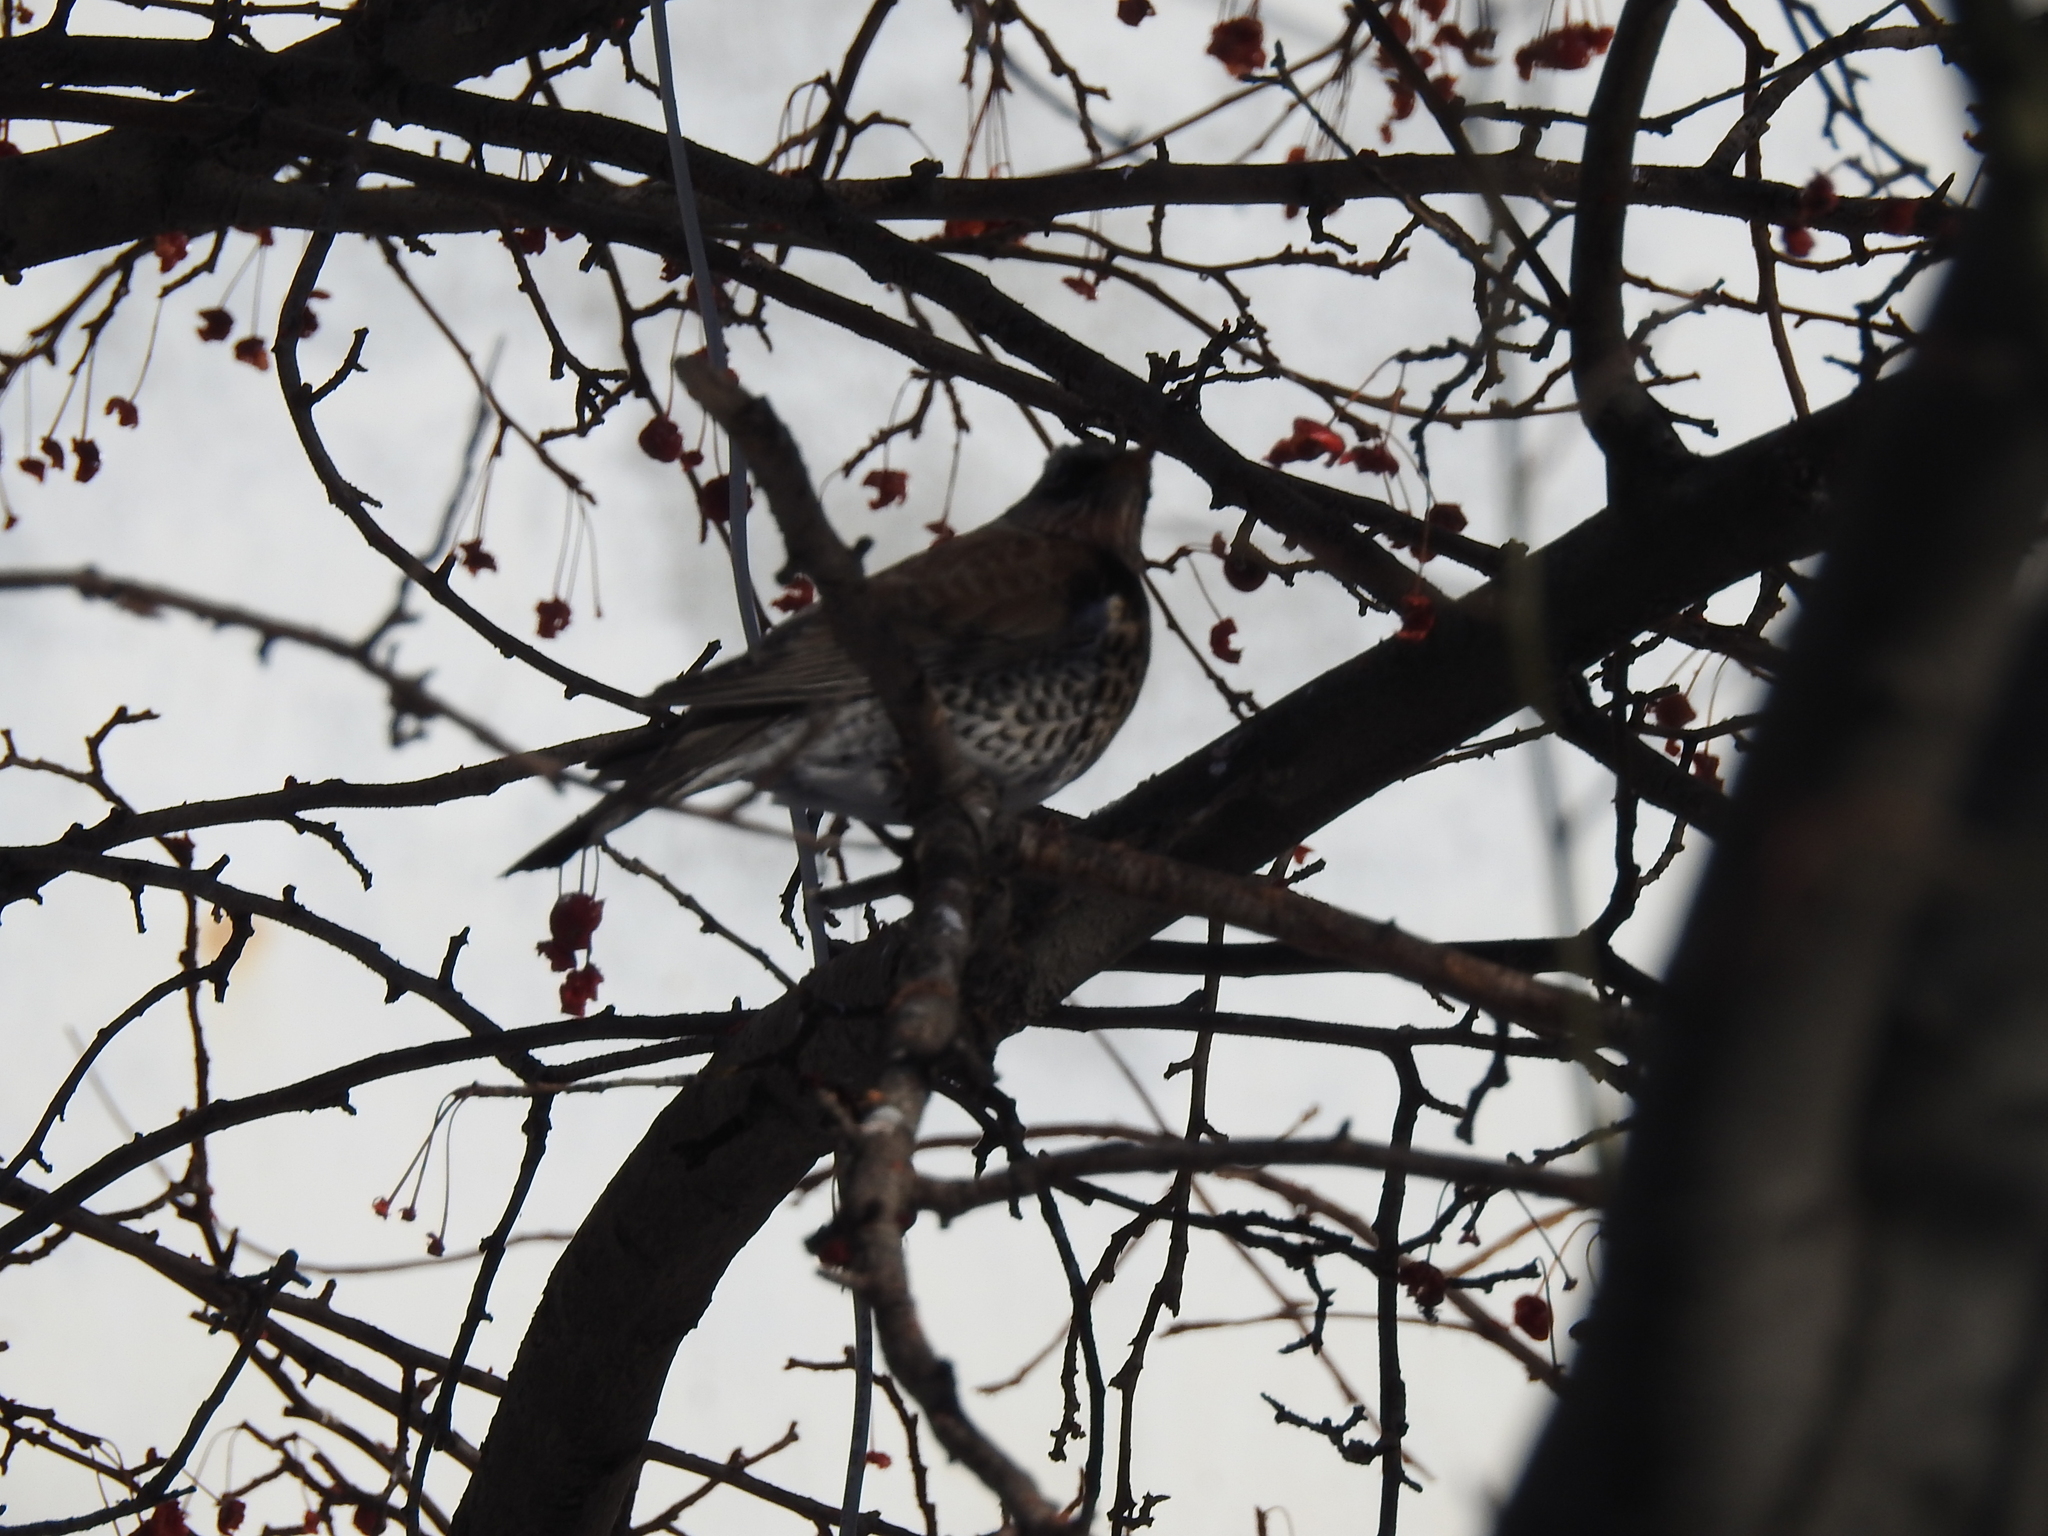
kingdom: Animalia
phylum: Chordata
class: Aves
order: Passeriformes
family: Turdidae
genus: Turdus
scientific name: Turdus pilaris
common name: Fieldfare
